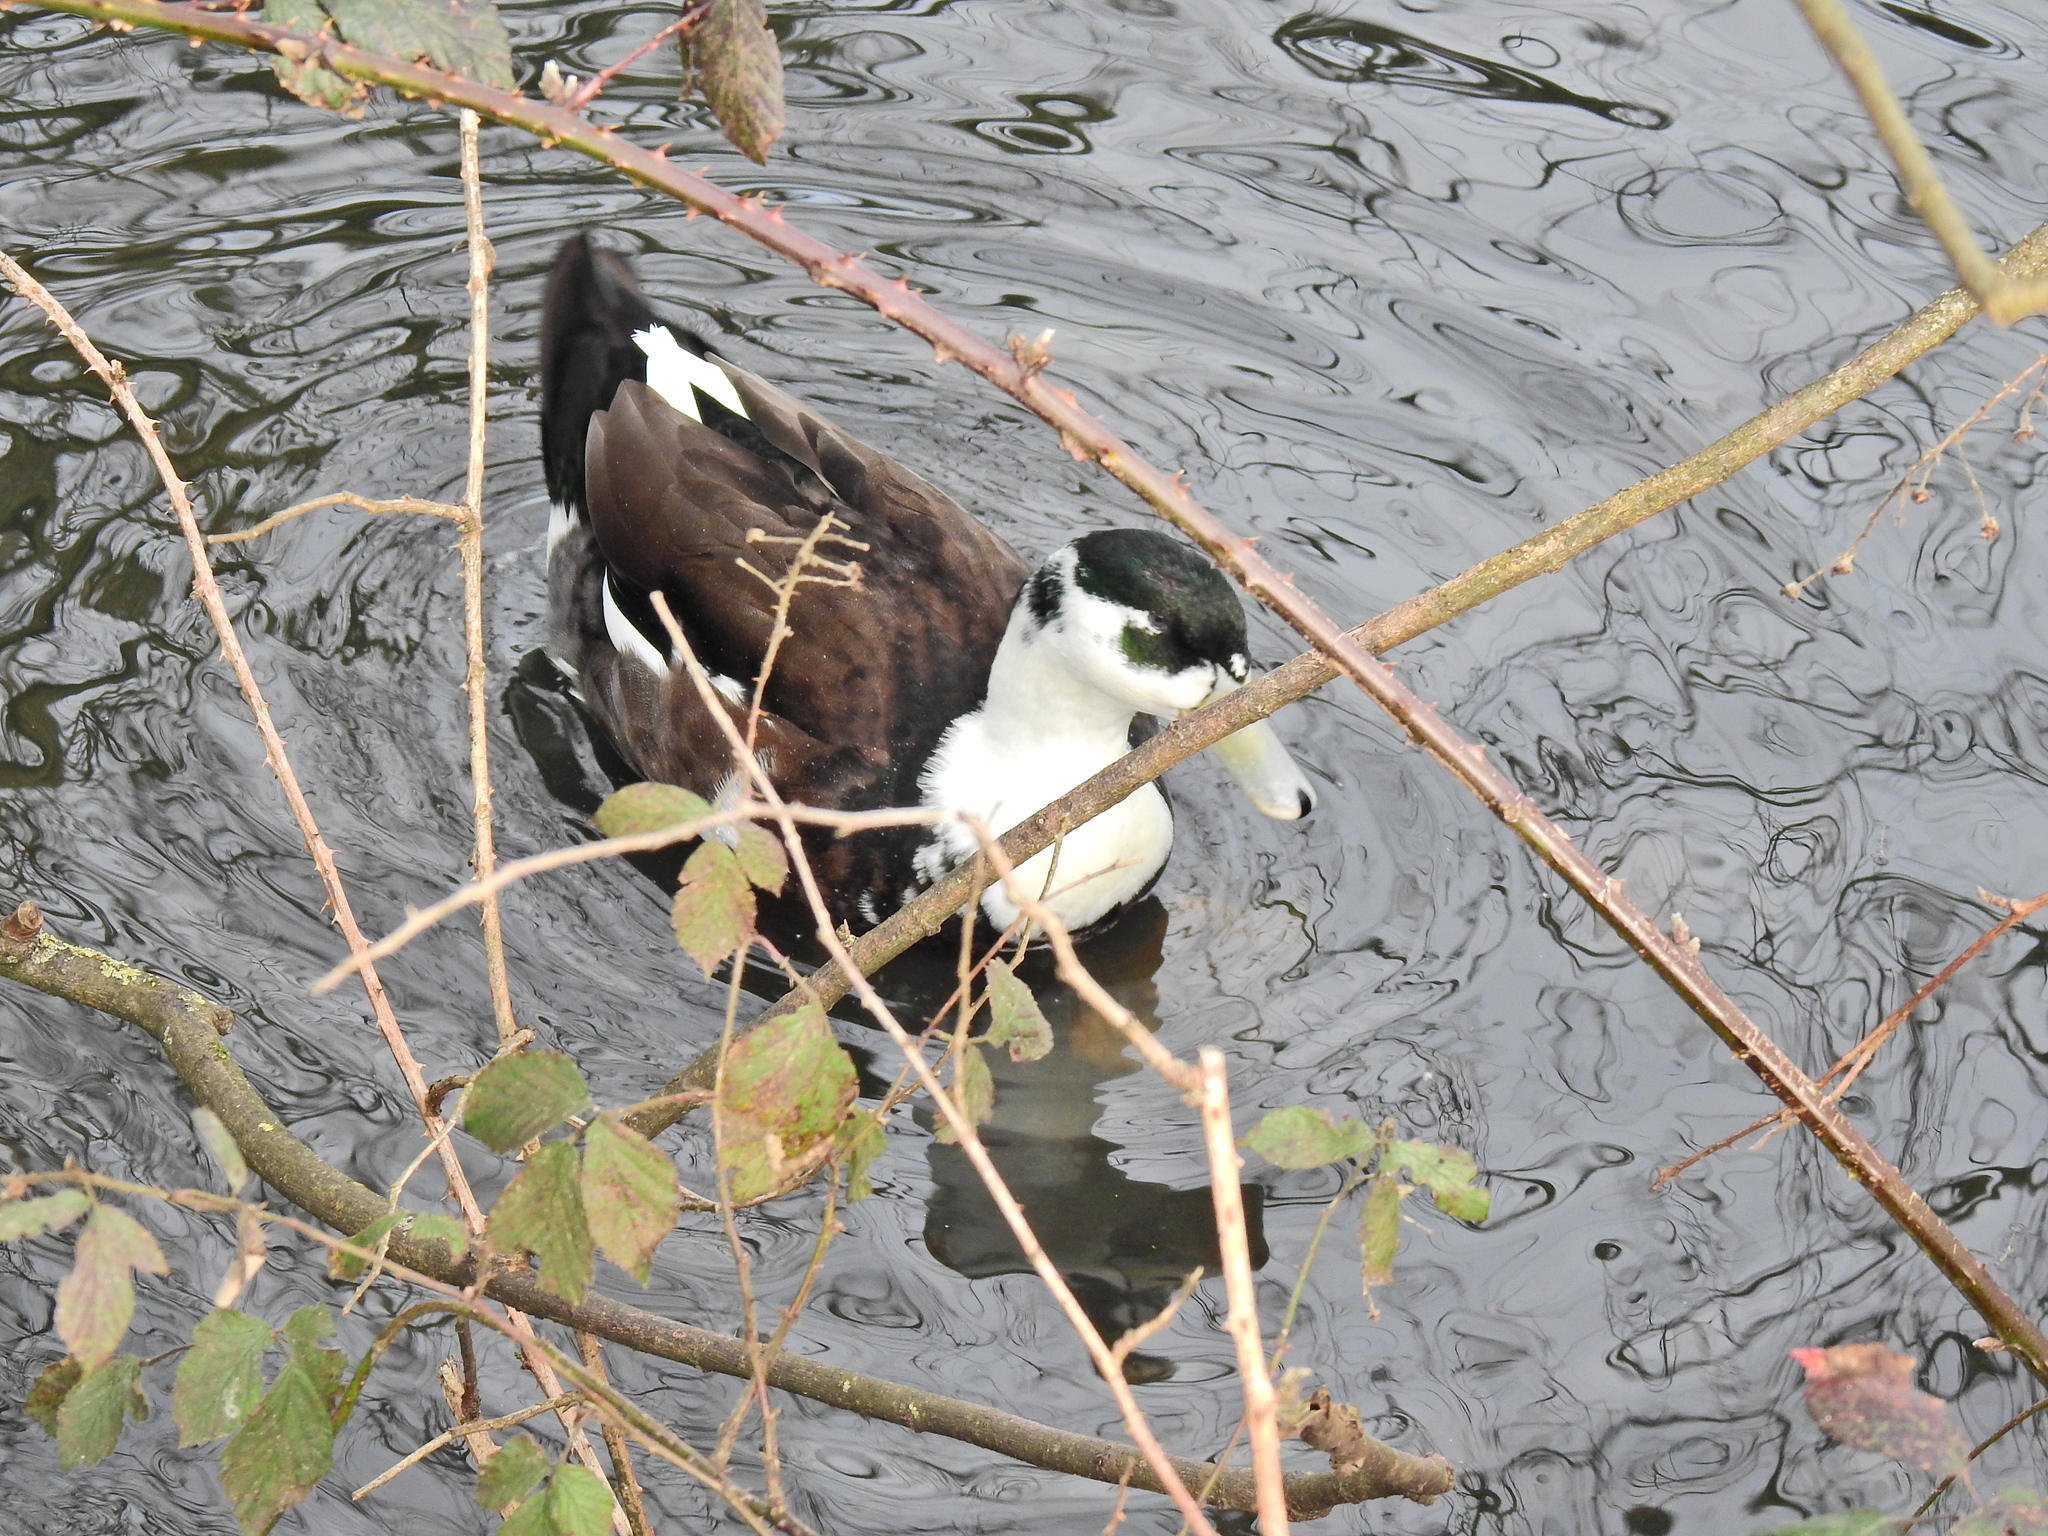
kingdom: Animalia
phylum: Chordata
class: Aves
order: Anseriformes
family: Anatidae
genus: Anas
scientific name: Anas platyrhynchos
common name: Mallard
